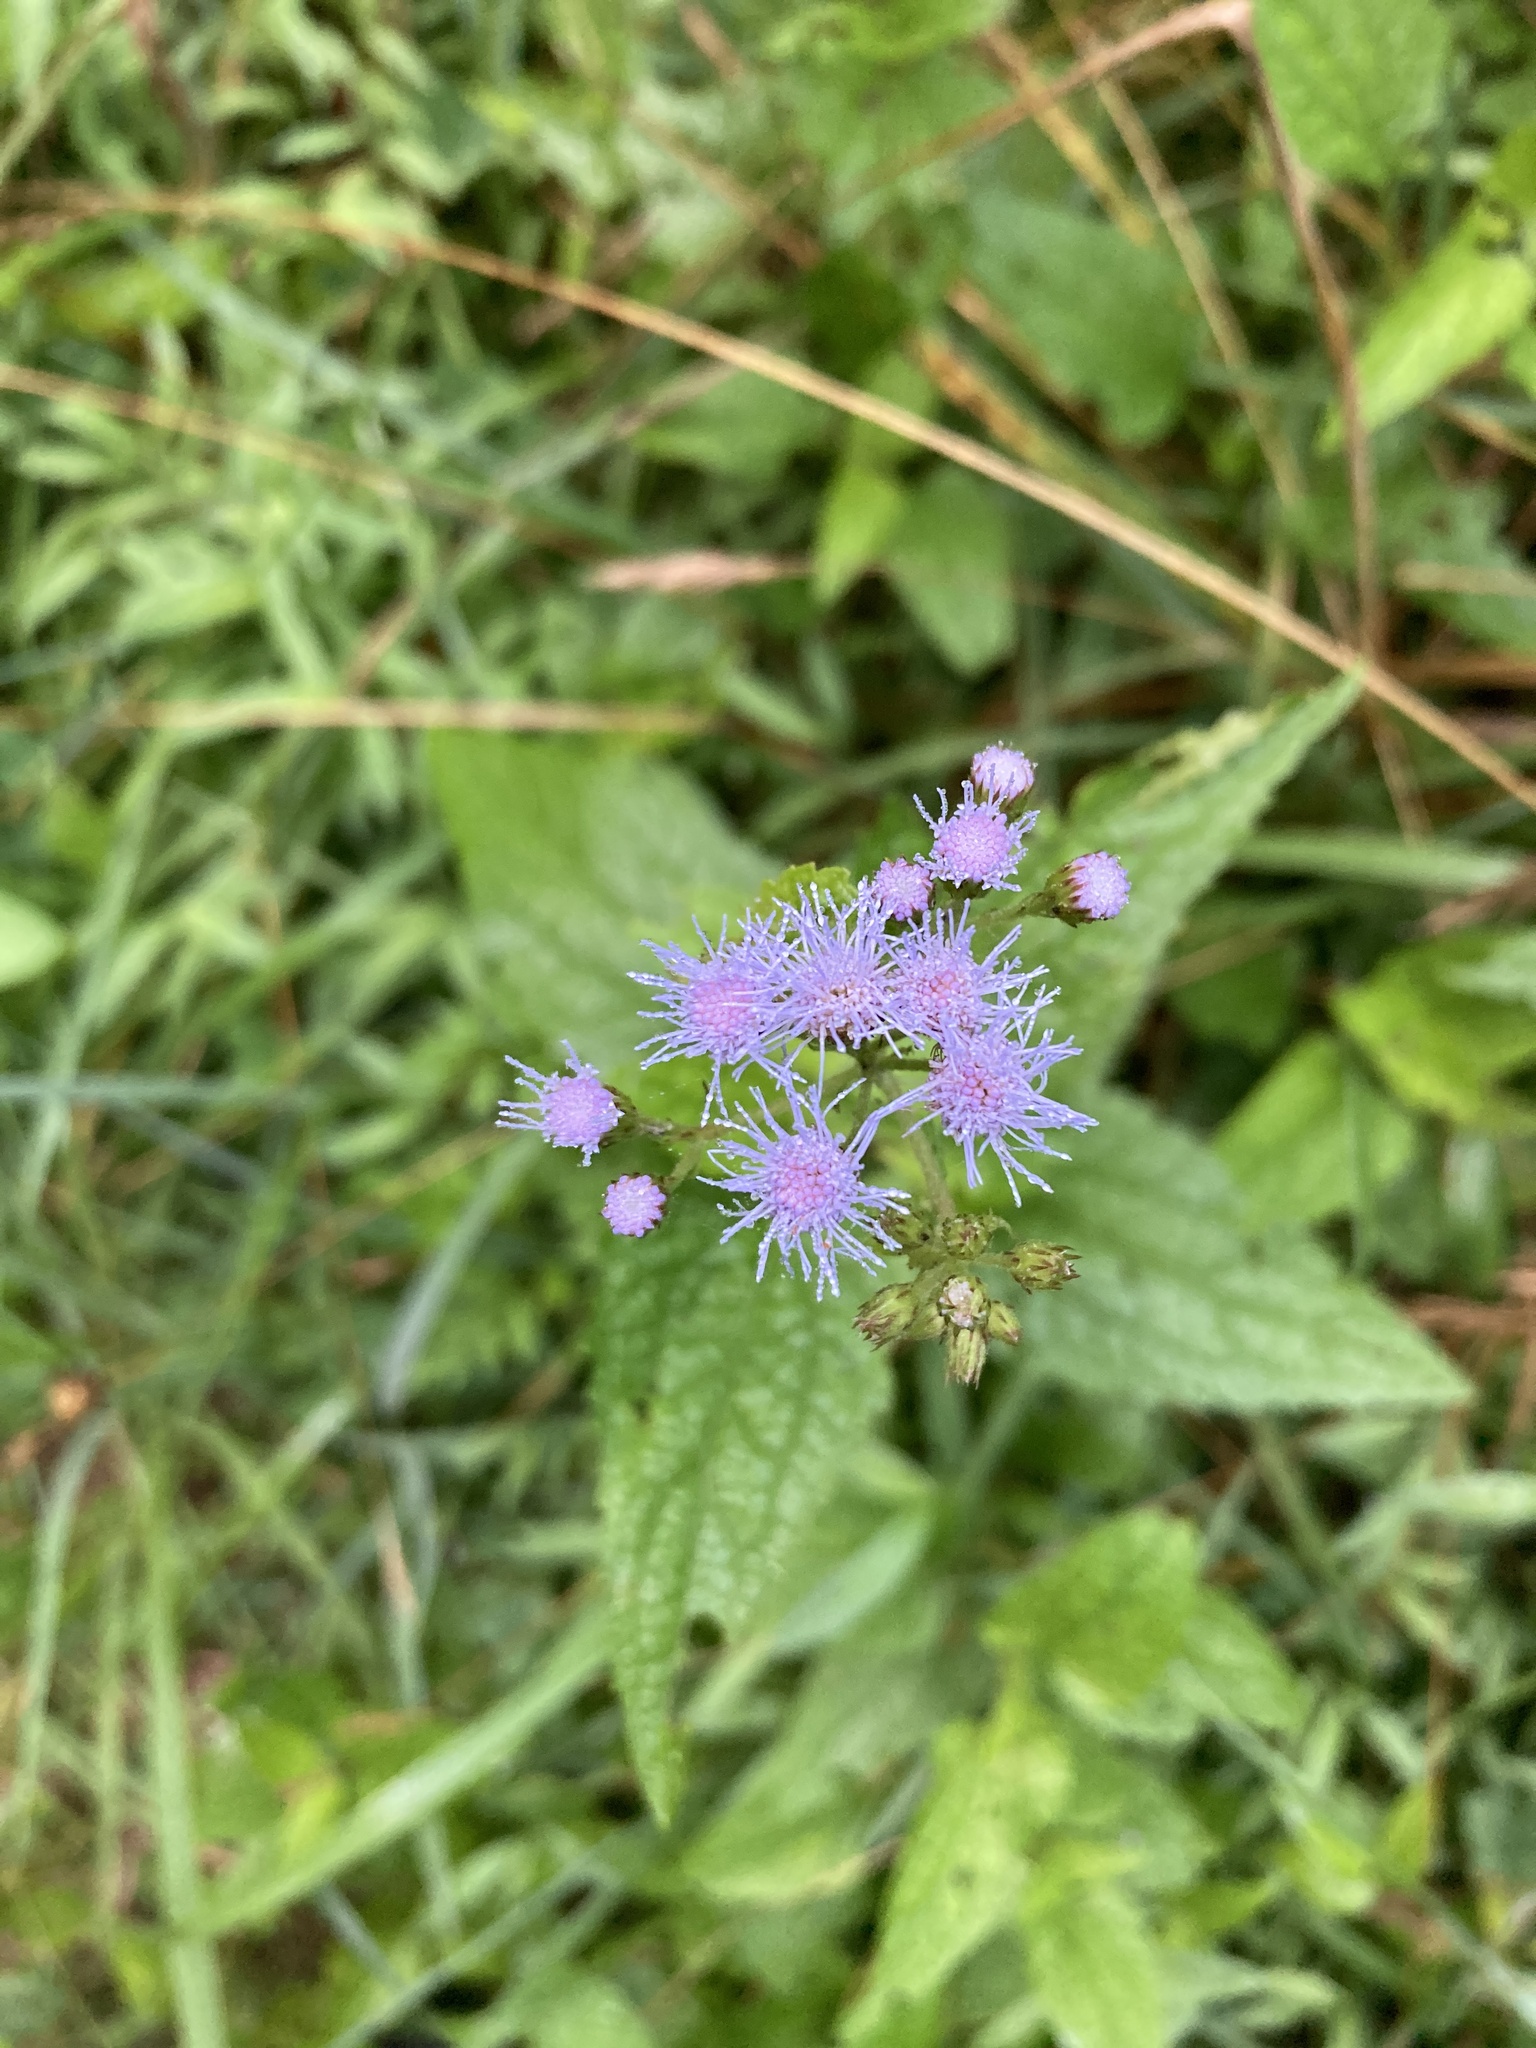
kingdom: Plantae
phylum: Tracheophyta
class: Magnoliopsida
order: Asterales
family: Asteraceae
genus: Conoclinium
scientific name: Conoclinium coelestinum
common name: Blue mistflower
